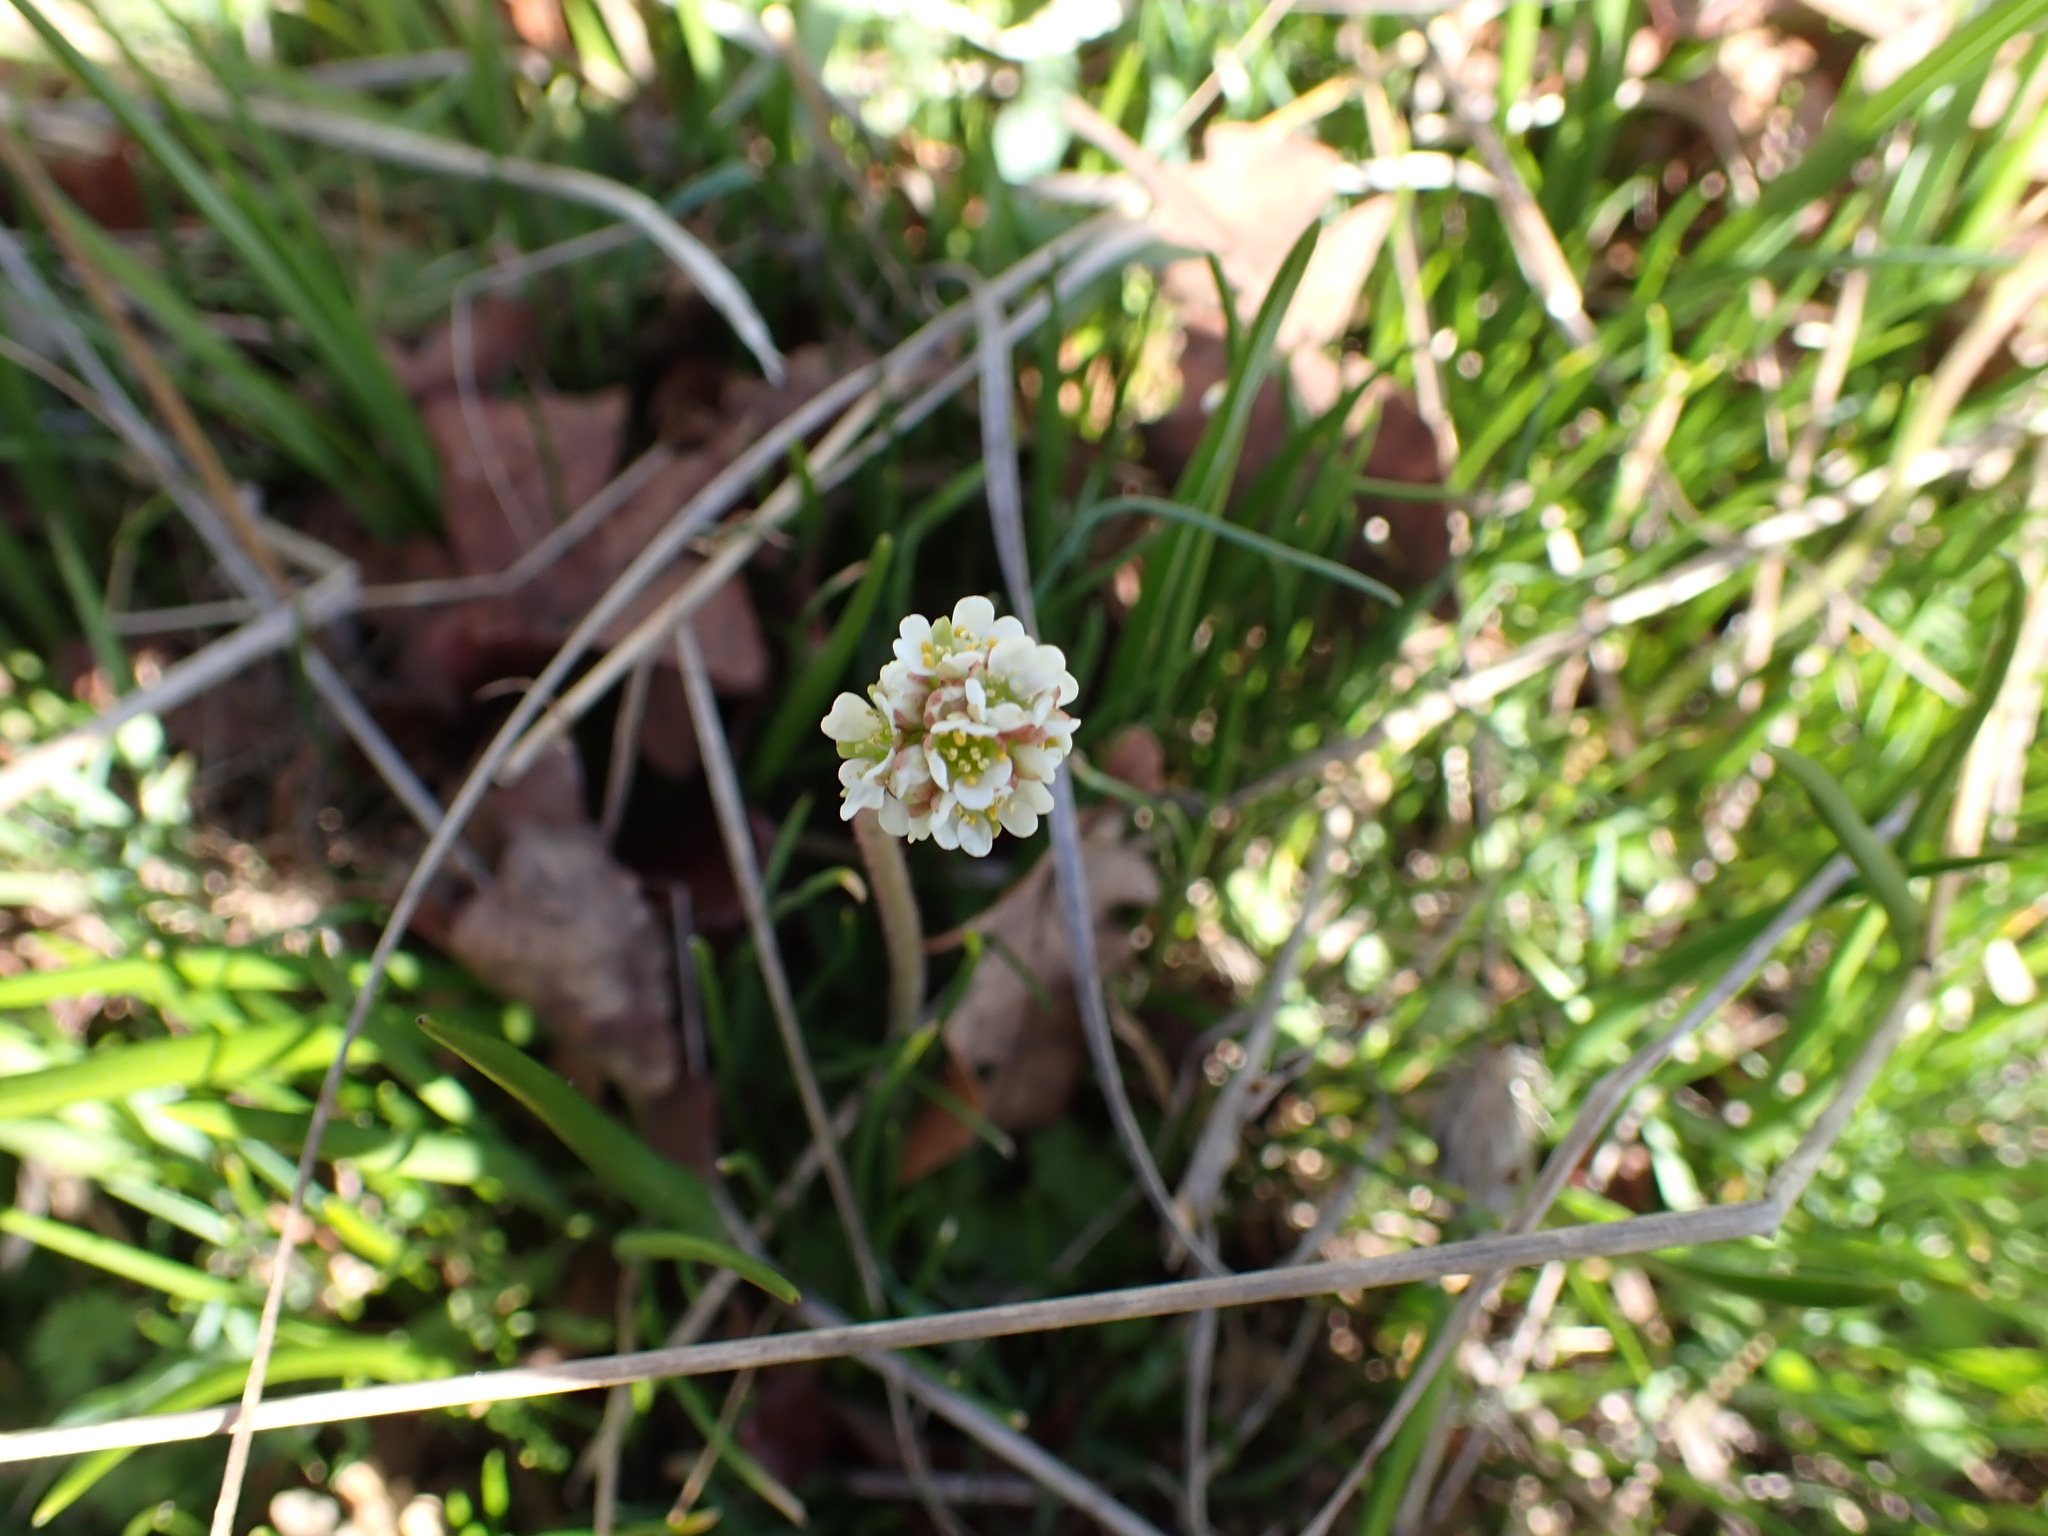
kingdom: Plantae
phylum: Tracheophyta
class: Magnoliopsida
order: Saxifragales
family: Saxifragaceae
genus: Micranthes
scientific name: Micranthes integrifolia
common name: Wholeleaf saxifrage
